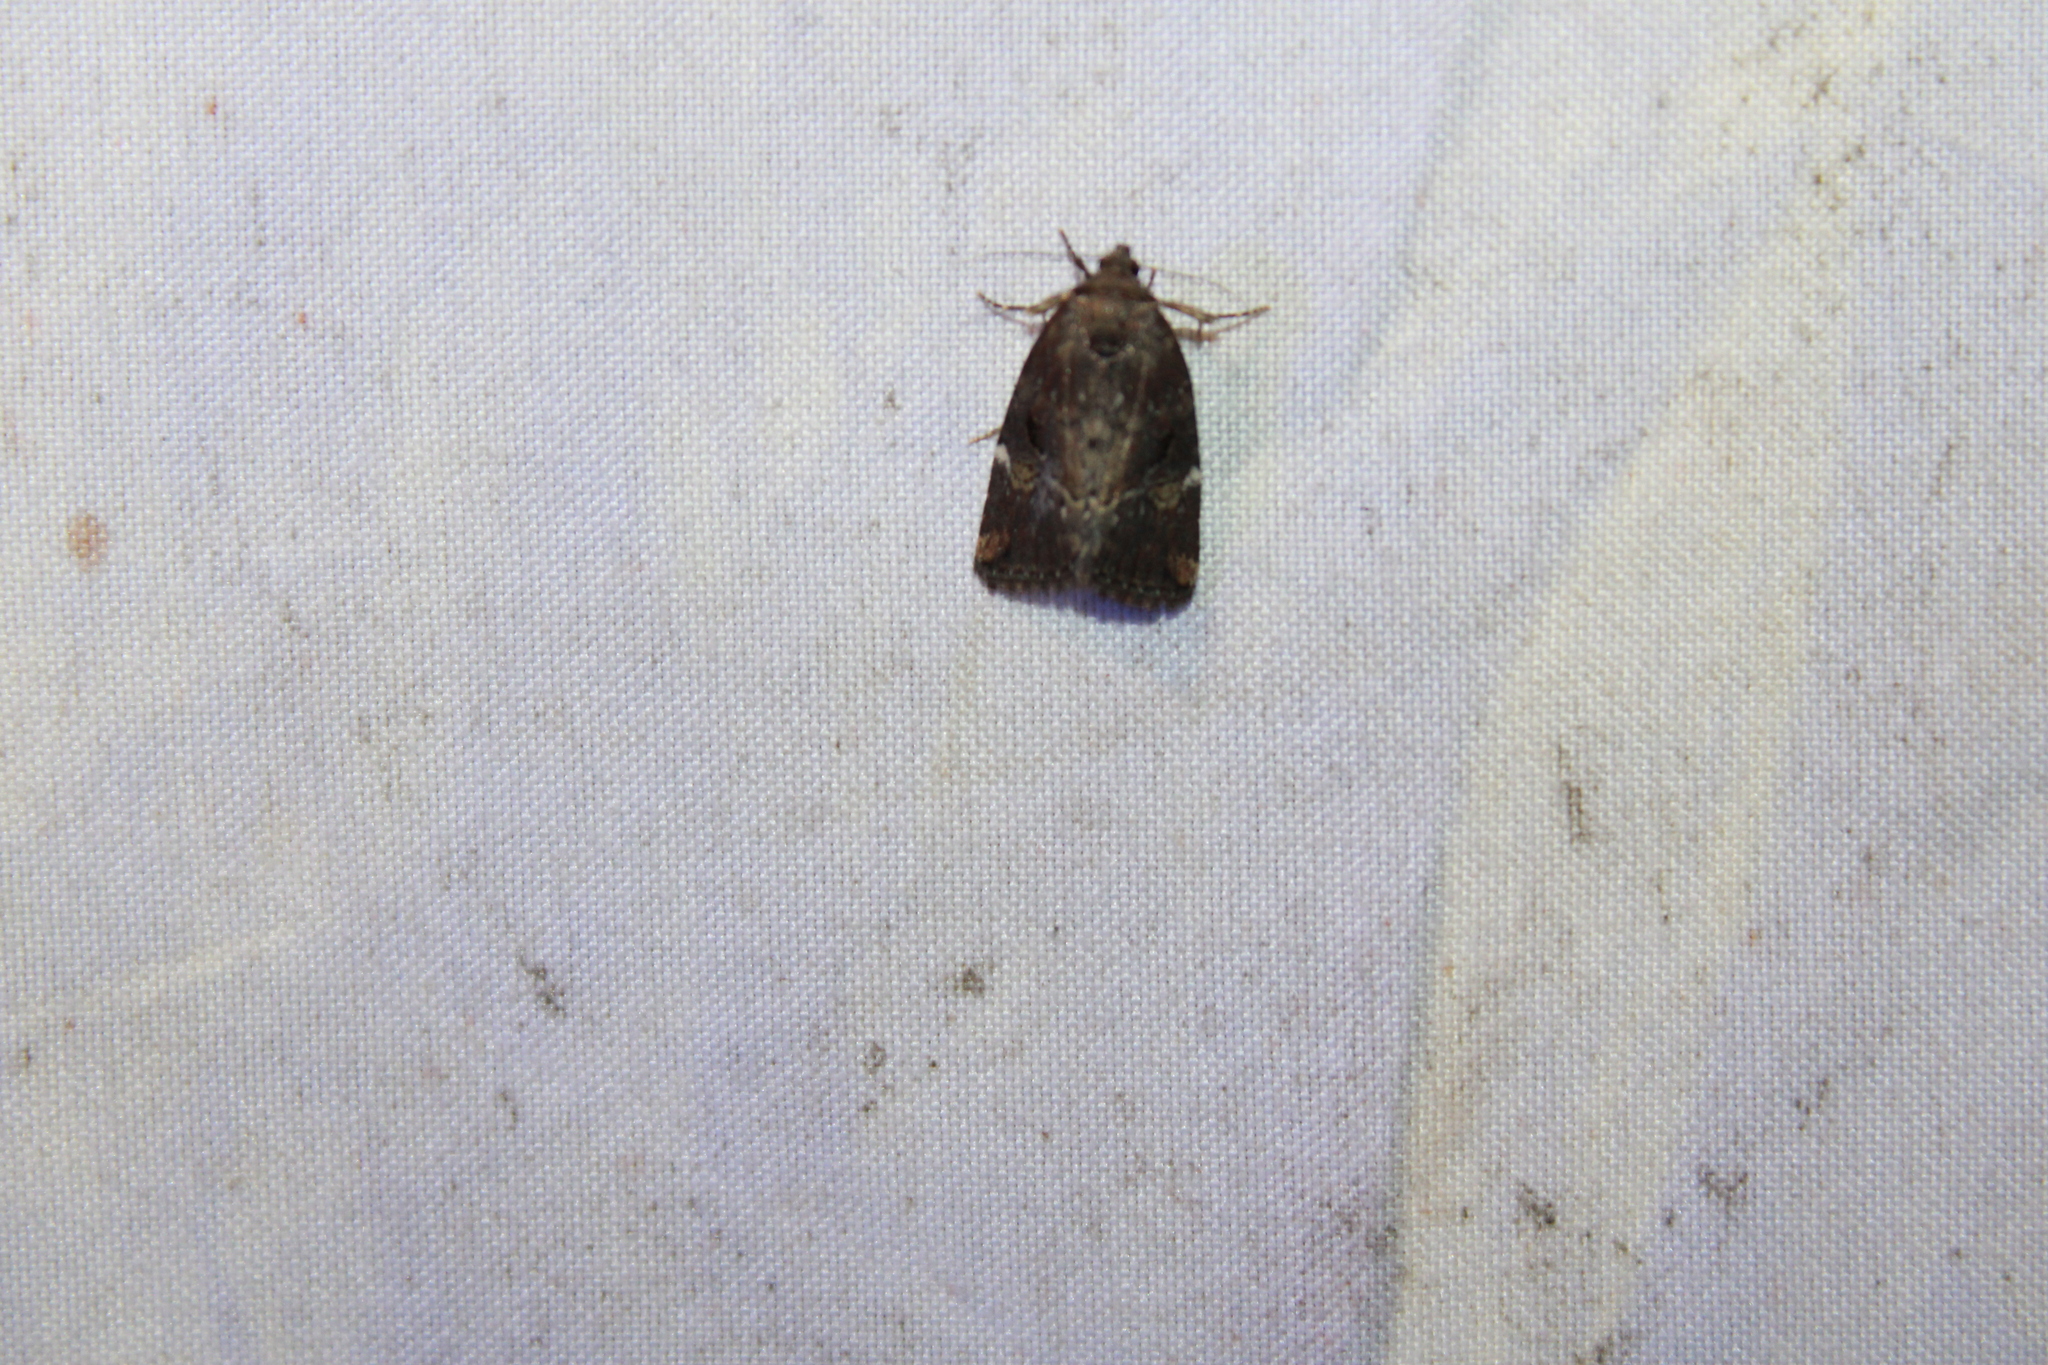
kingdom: Animalia
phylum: Arthropoda
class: Insecta
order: Lepidoptera
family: Noctuidae
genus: Elaphria
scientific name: Elaphria versicolor
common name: Fir harlequin
